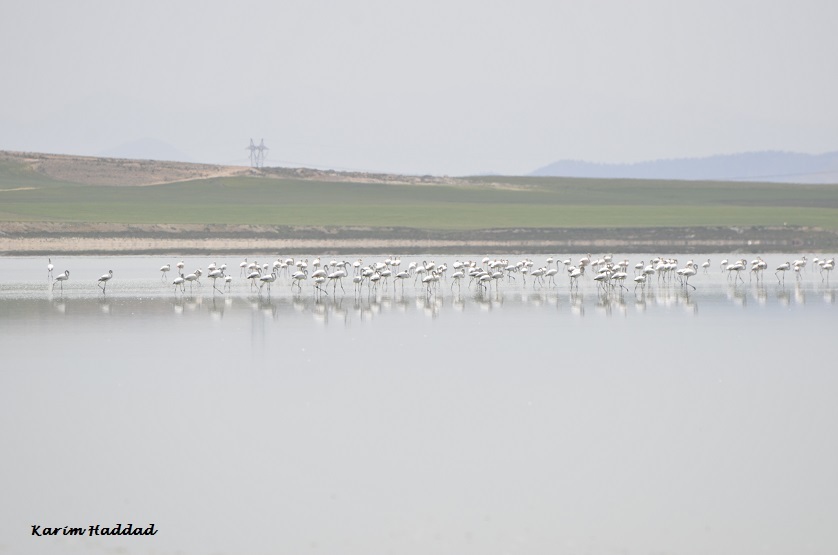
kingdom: Animalia
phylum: Chordata
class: Aves
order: Phoenicopteriformes
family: Phoenicopteridae
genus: Phoenicopterus
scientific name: Phoenicopterus roseus
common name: Greater flamingo
